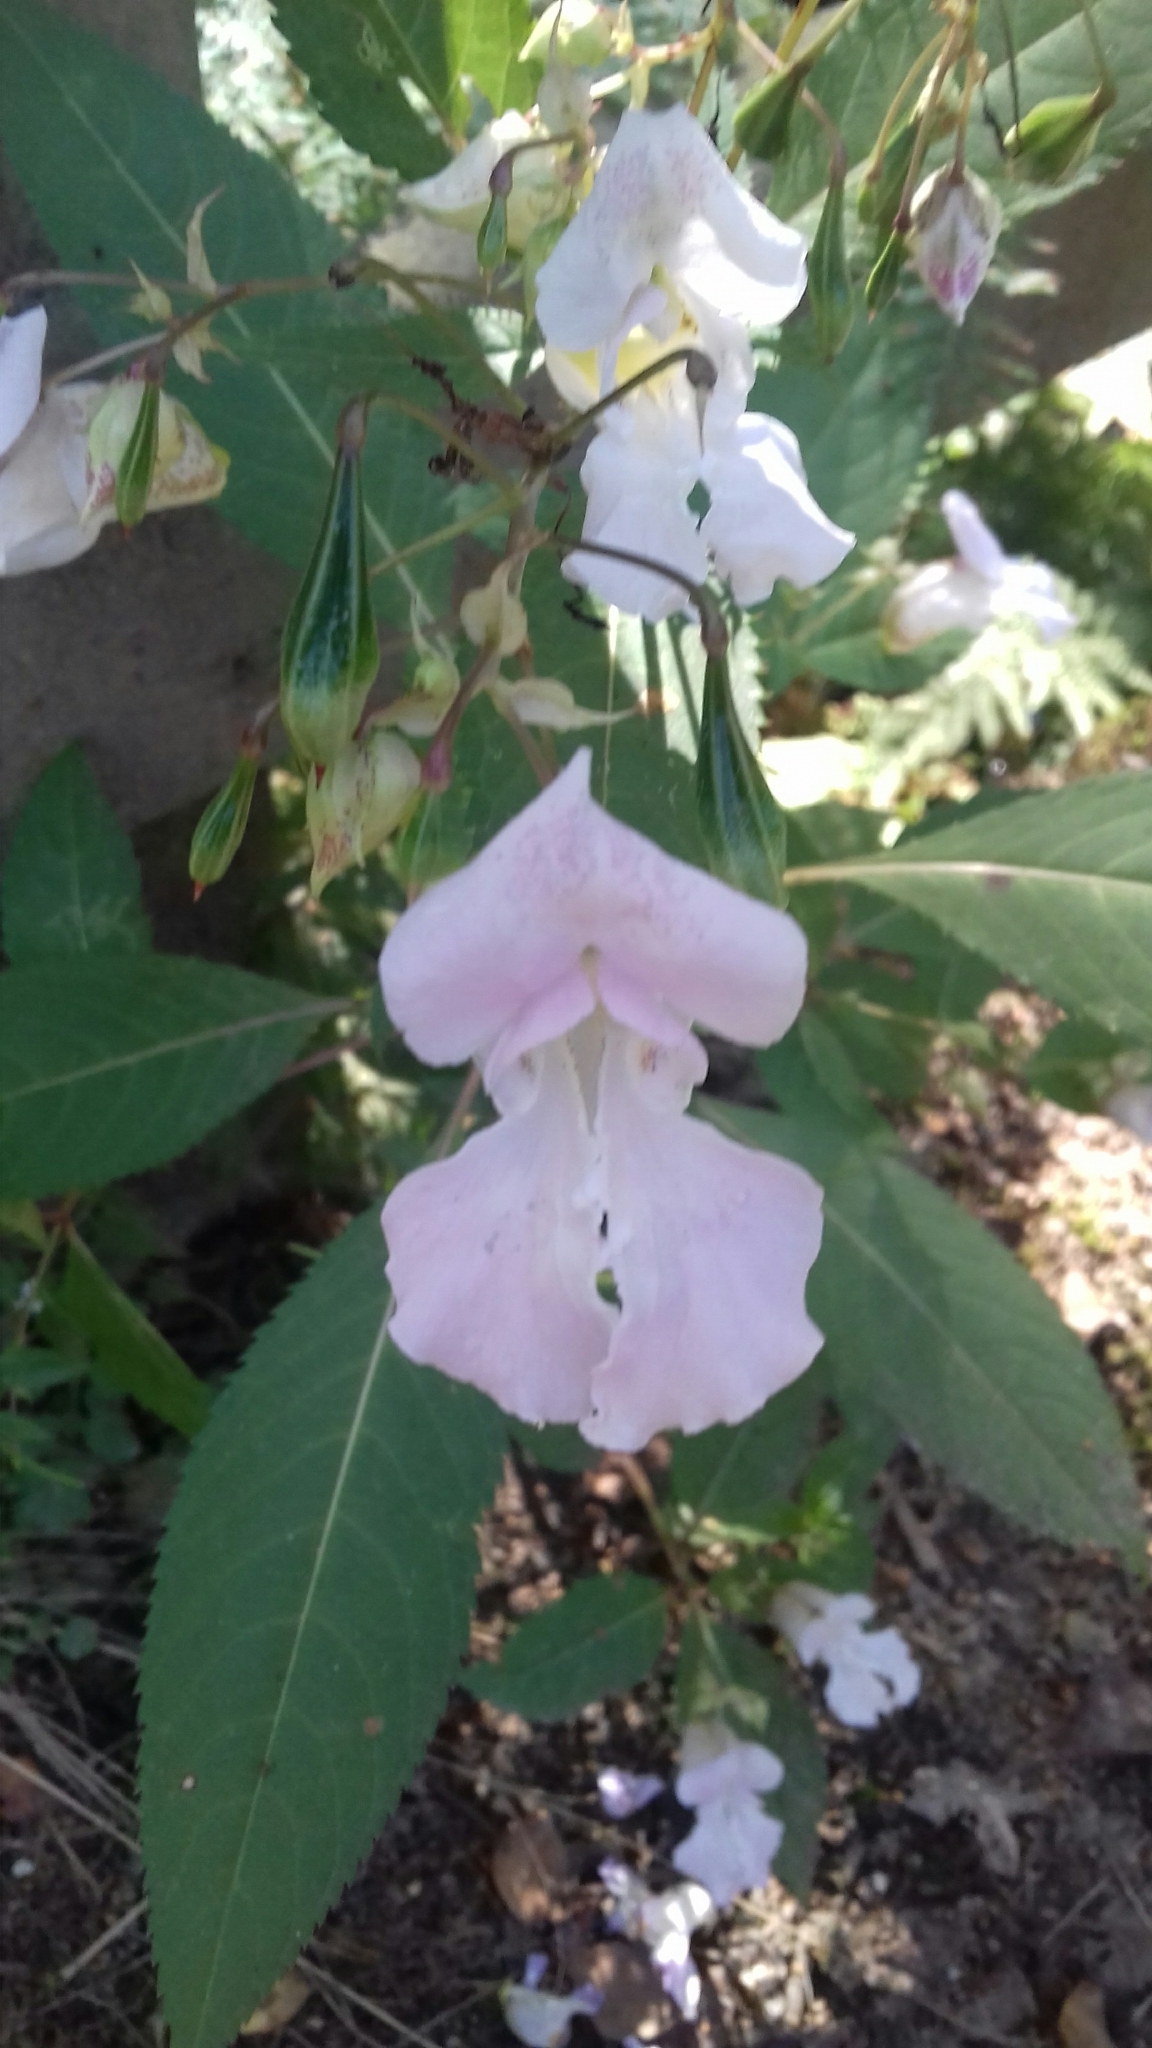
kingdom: Plantae
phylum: Tracheophyta
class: Magnoliopsida
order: Ericales
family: Balsaminaceae
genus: Impatiens
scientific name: Impatiens glandulifera
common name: Himalayan balsam
